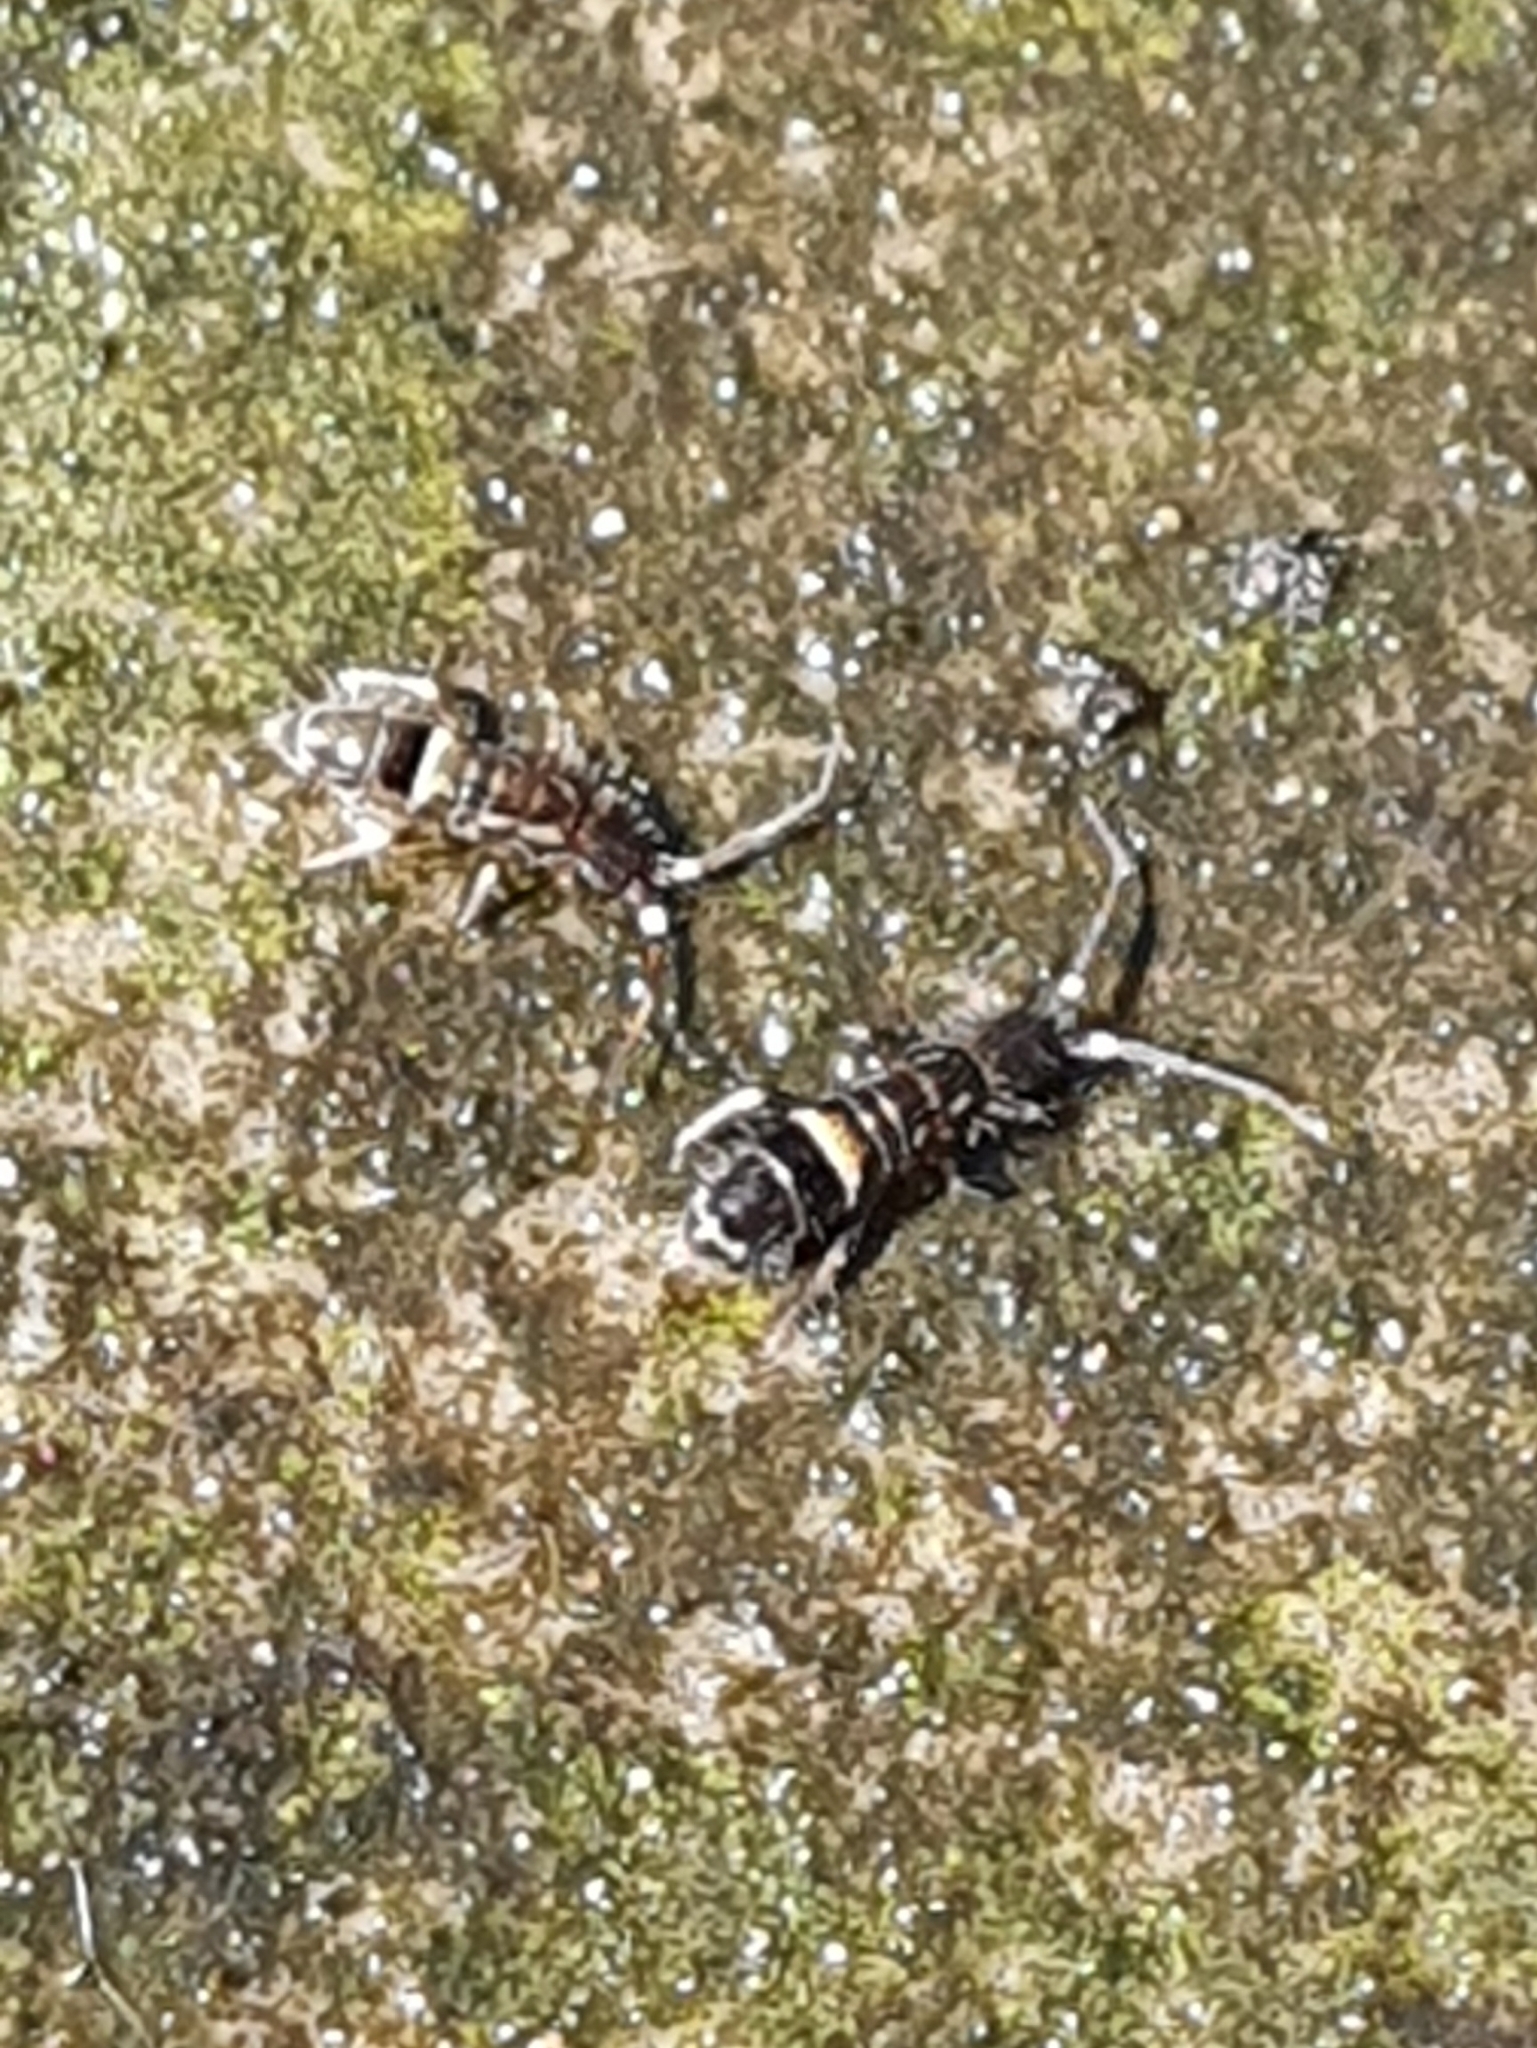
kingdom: Animalia
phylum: Arthropoda
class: Collembola
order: Entomobryomorpha
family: Orchesellidae
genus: Orchesella
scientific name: Orchesella cincta
